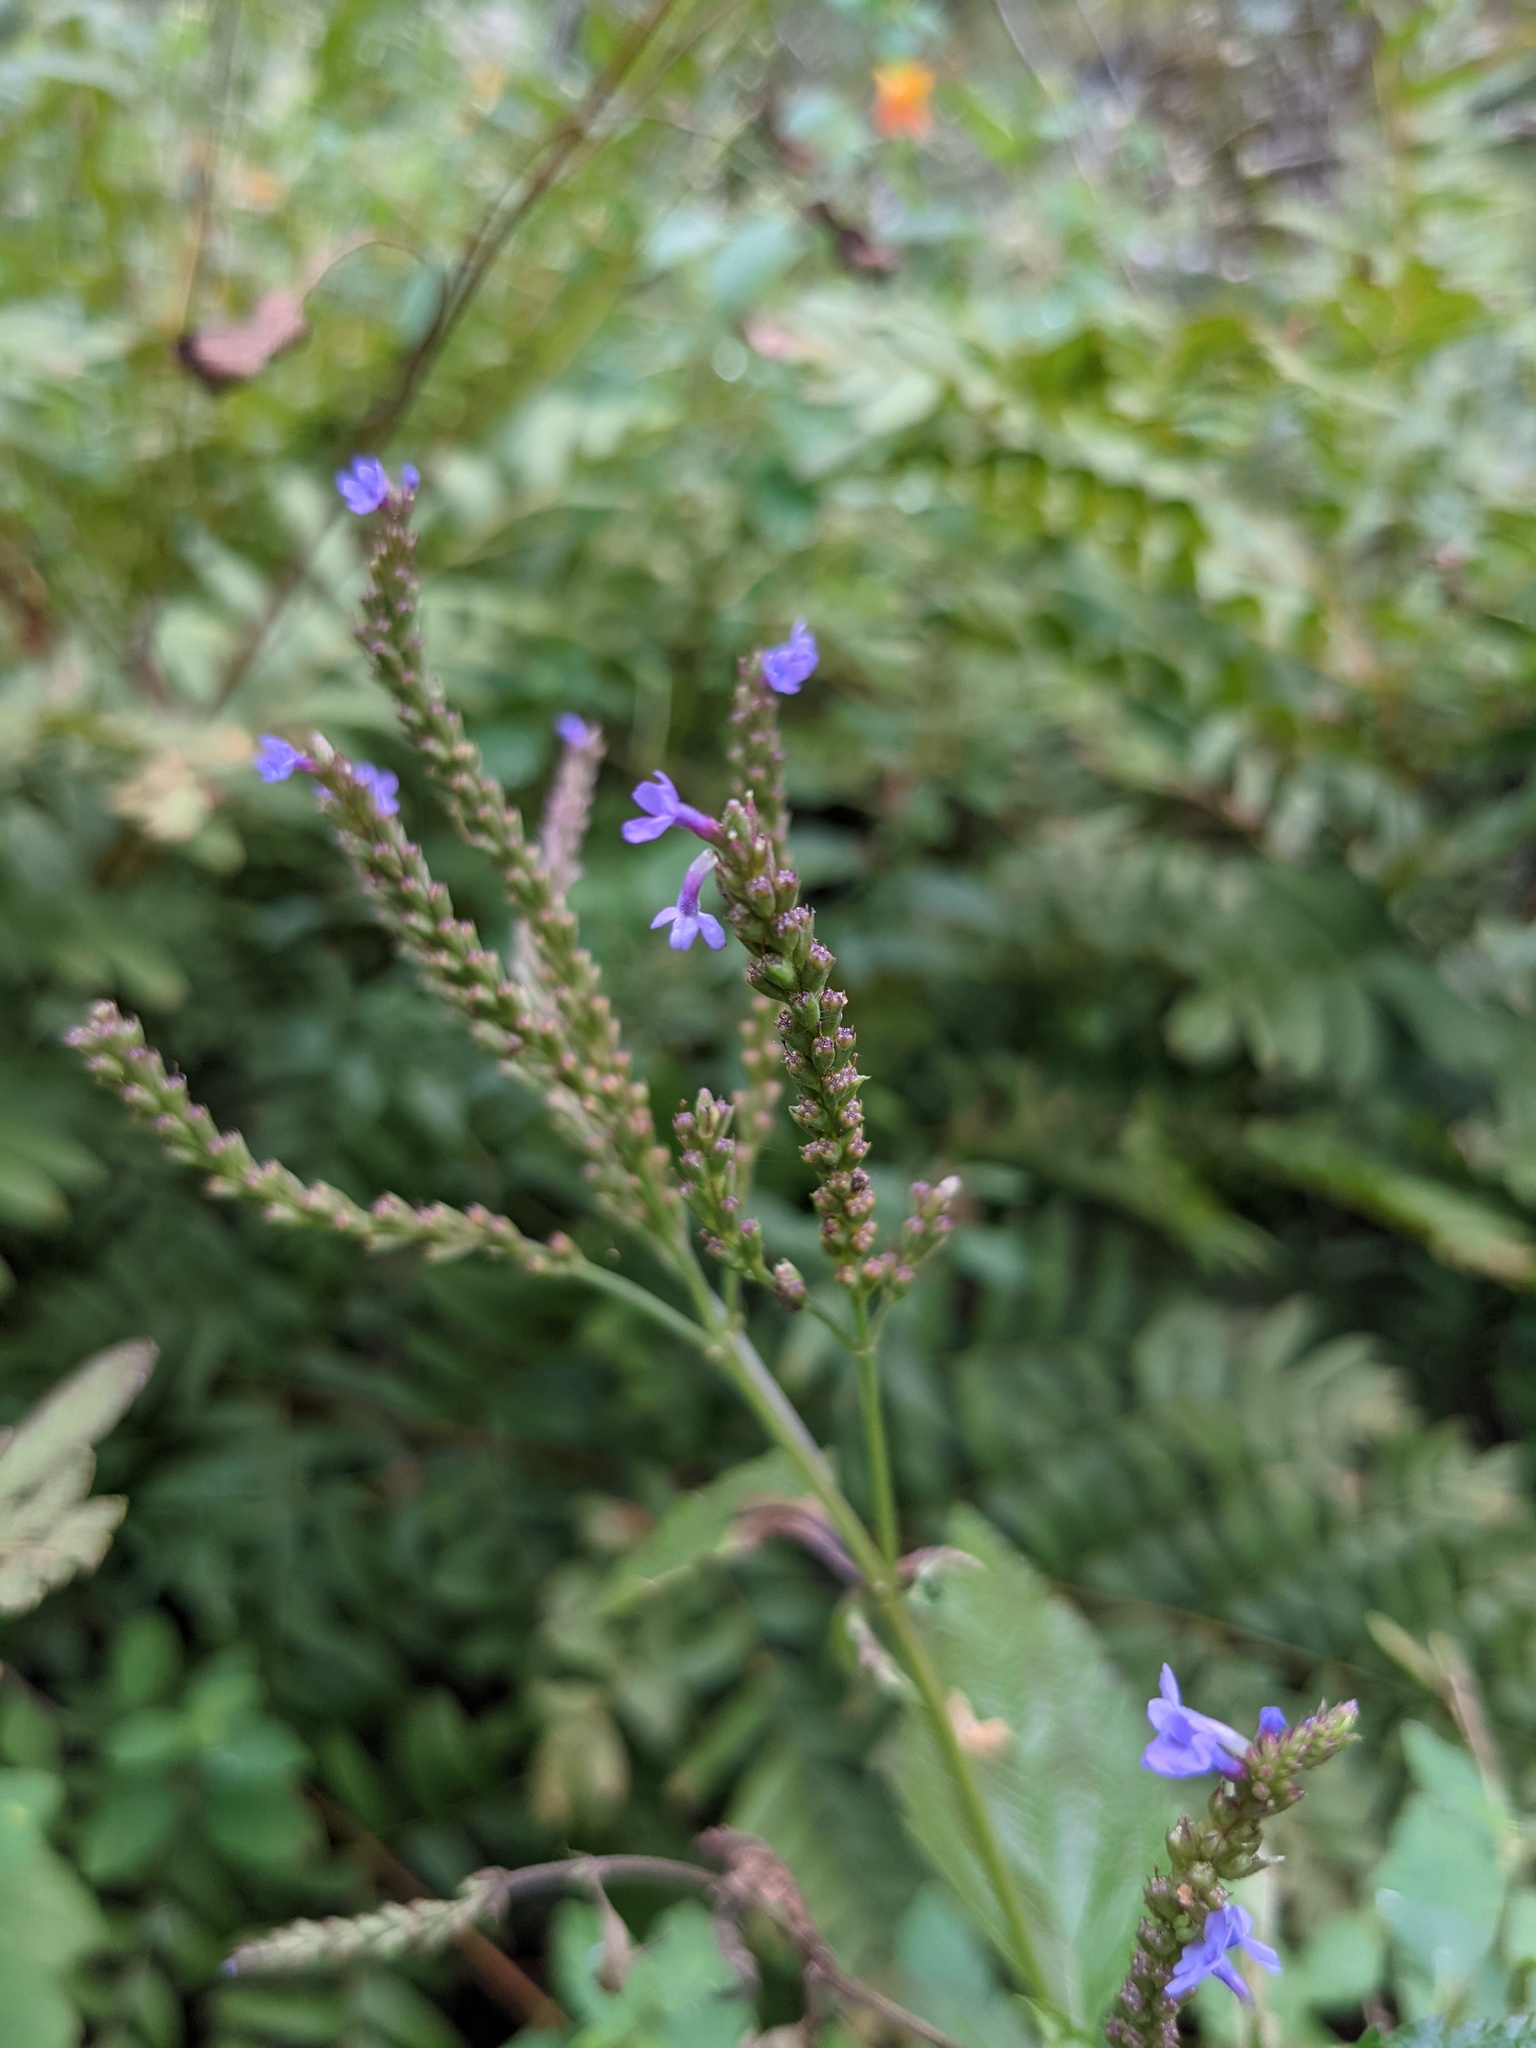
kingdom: Plantae
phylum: Tracheophyta
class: Magnoliopsida
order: Lamiales
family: Verbenaceae
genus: Verbena
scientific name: Verbena hastata
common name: American blue vervain
